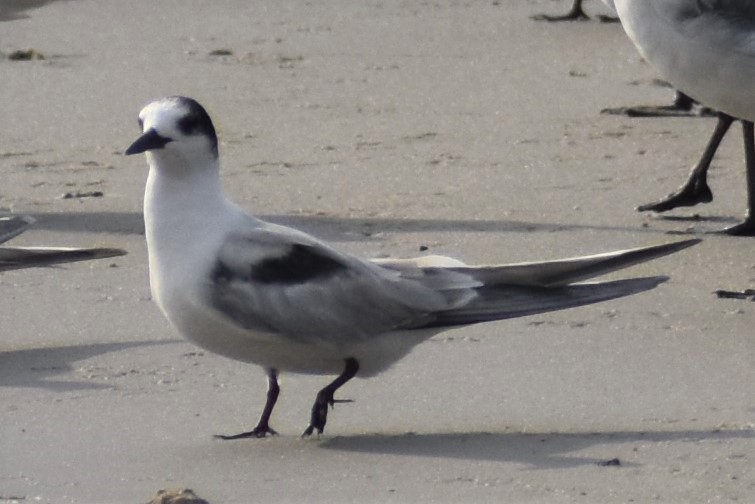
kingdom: Animalia
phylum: Chordata
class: Aves
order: Charadriiformes
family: Laridae
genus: Sterna
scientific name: Sterna hirundo
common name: Common tern
